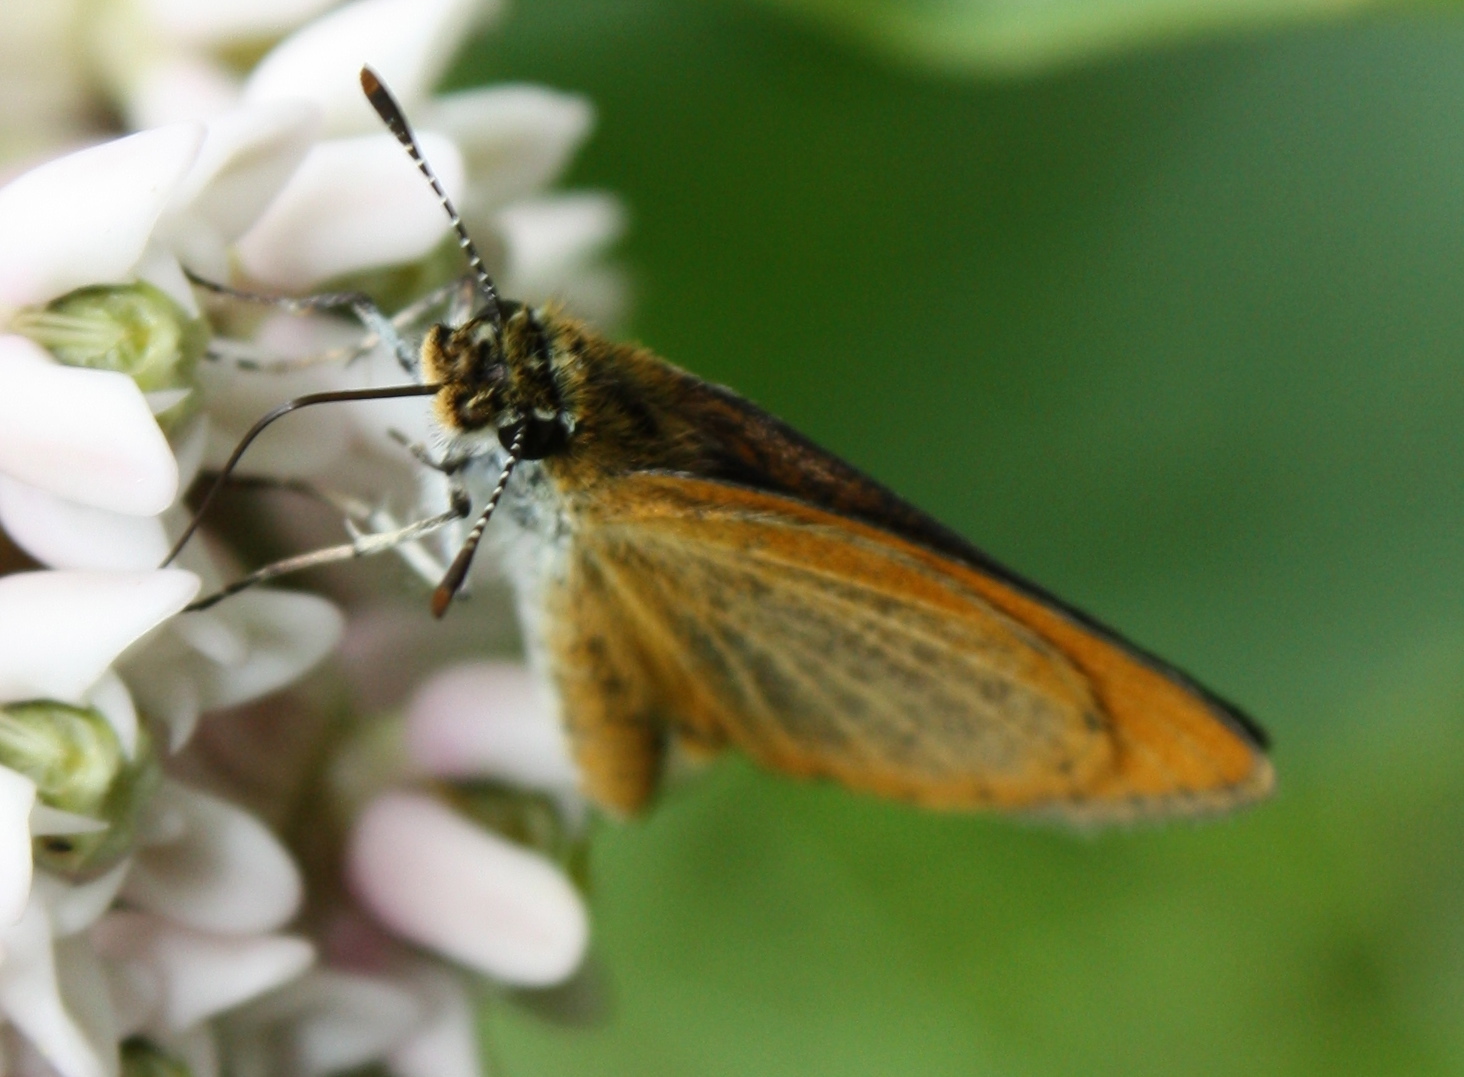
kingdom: Animalia
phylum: Arthropoda
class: Insecta
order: Lepidoptera
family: Hesperiidae
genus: Ancyloxypha
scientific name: Ancyloxypha numitor
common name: Least skipper
